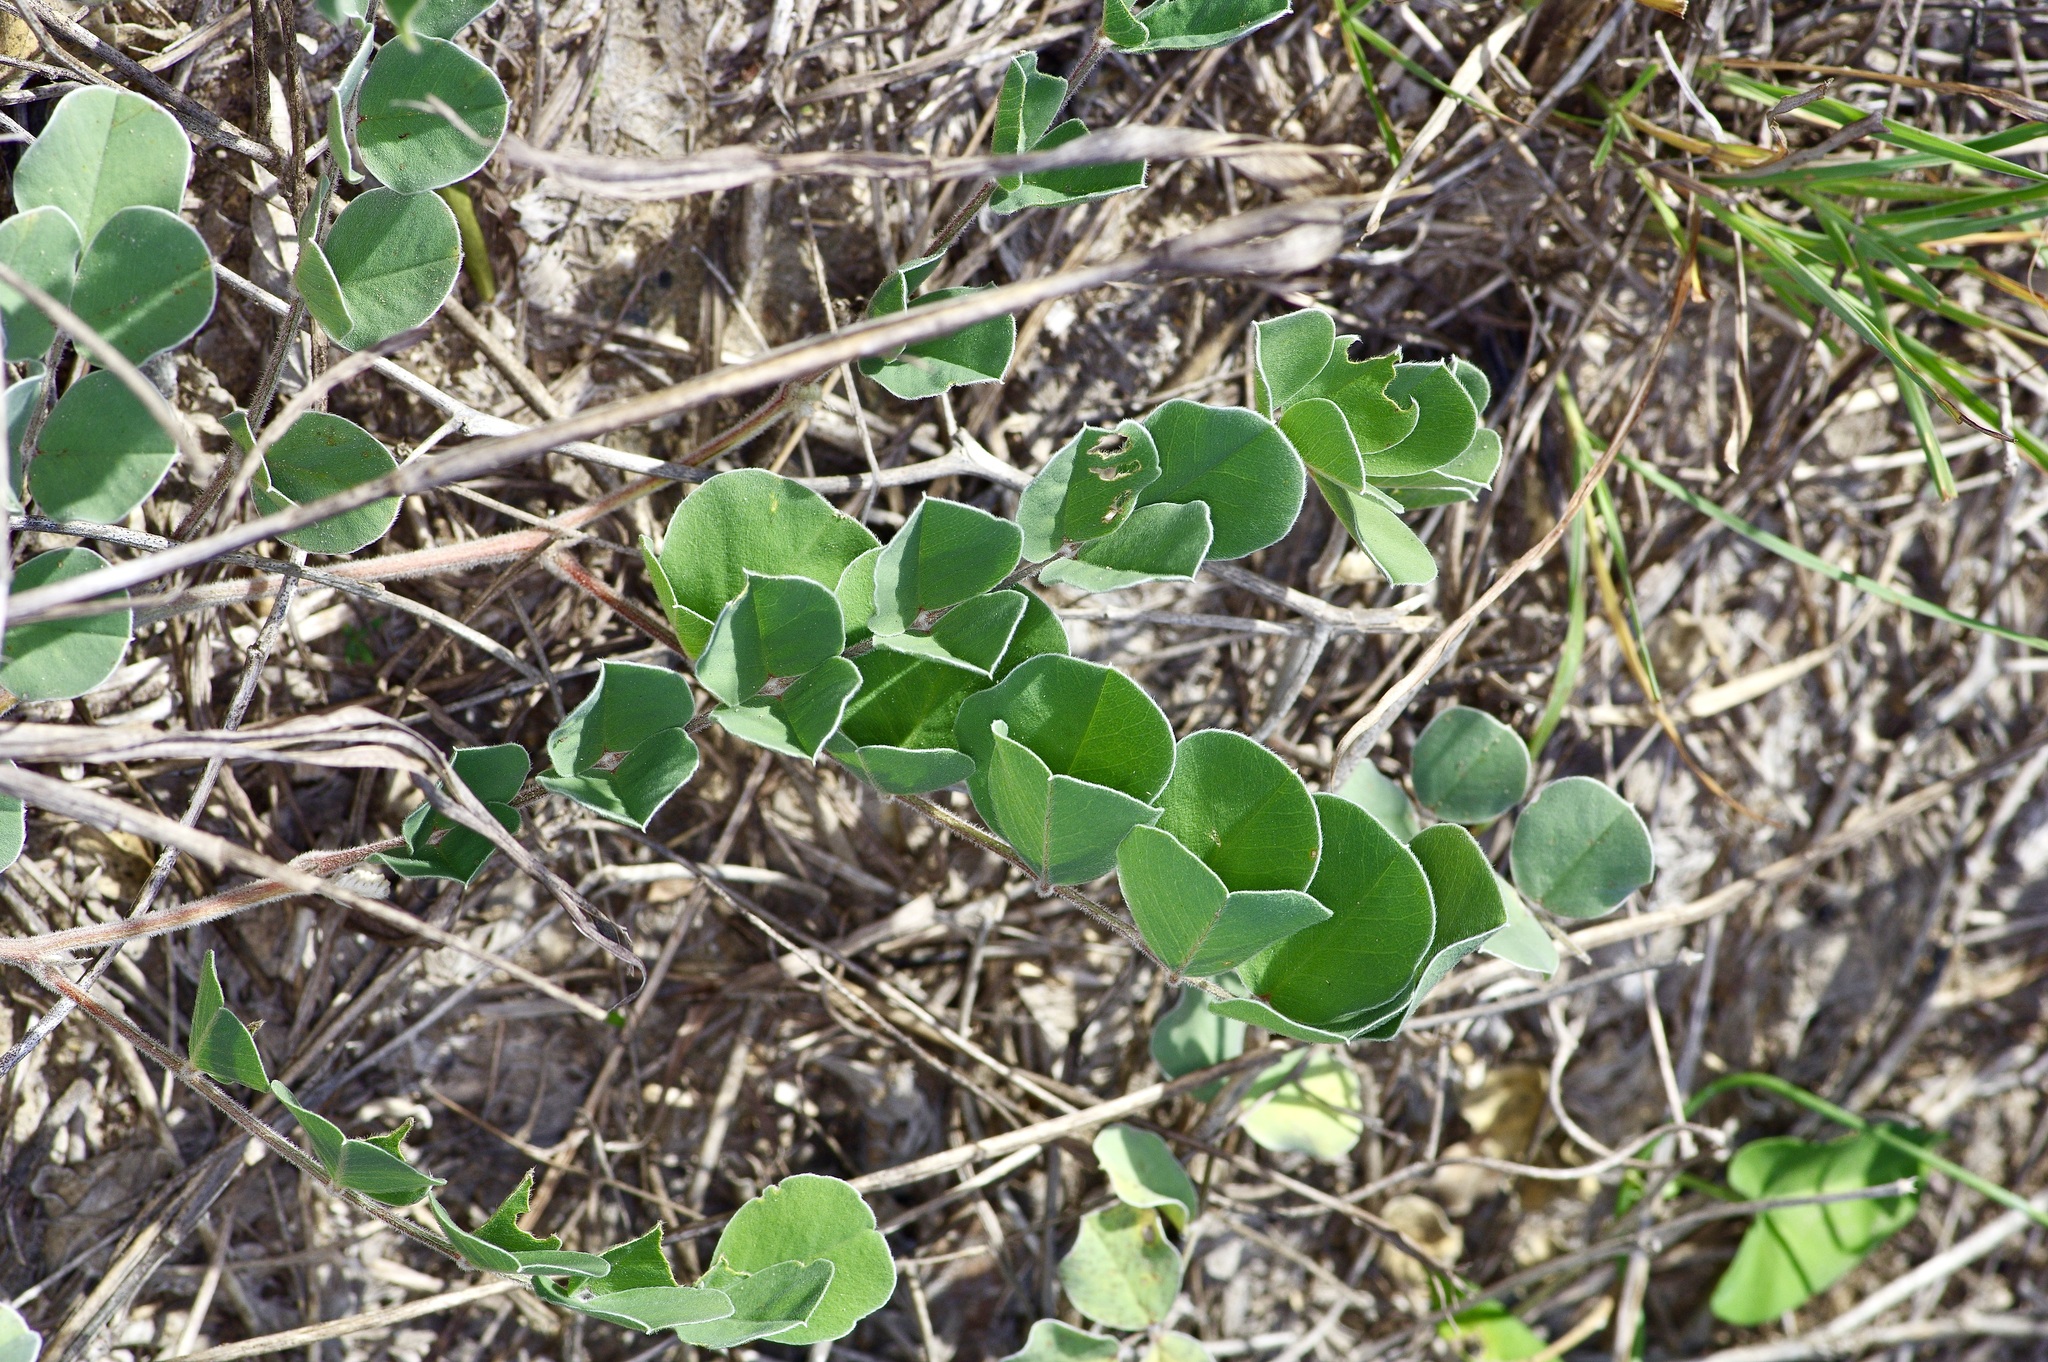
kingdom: Plantae
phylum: Tracheophyta
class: Magnoliopsida
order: Fabales
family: Fabaceae
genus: Tephrosia
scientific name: Tephrosia lindheimeri
